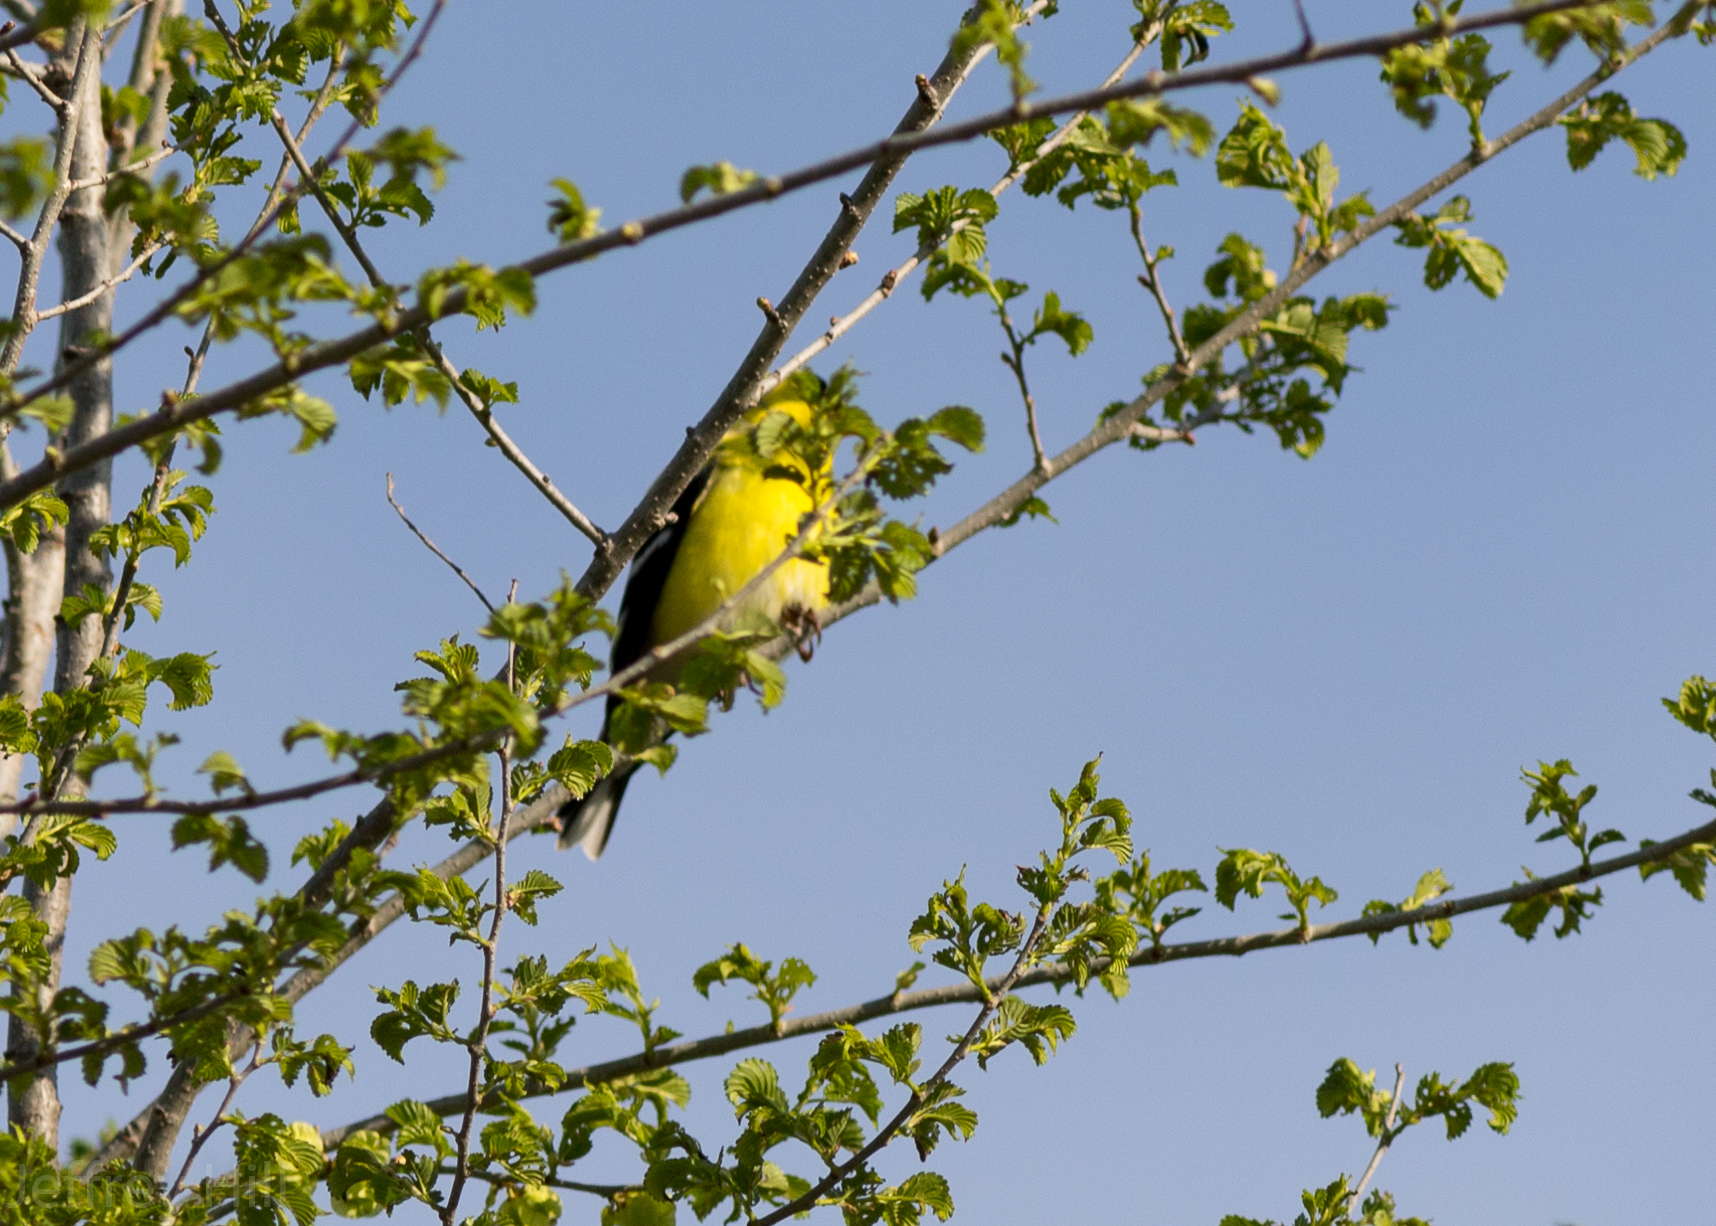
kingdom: Animalia
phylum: Chordata
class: Aves
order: Passeriformes
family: Fringillidae
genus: Spinus
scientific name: Spinus tristis
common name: American goldfinch
